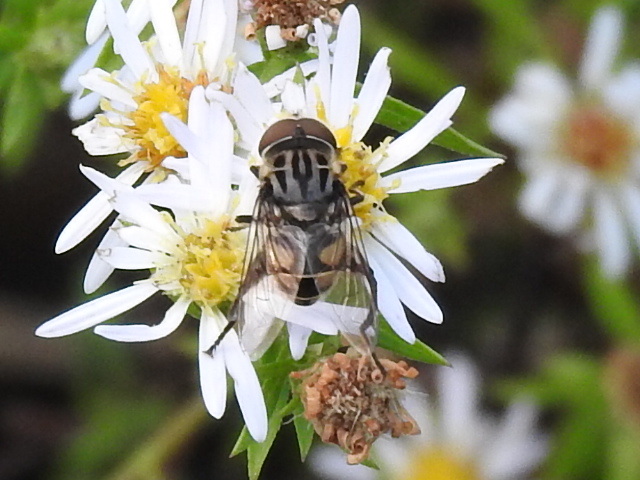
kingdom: Animalia
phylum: Arthropoda
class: Insecta
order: Diptera
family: Syrphidae
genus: Palpada
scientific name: Palpada furcata
